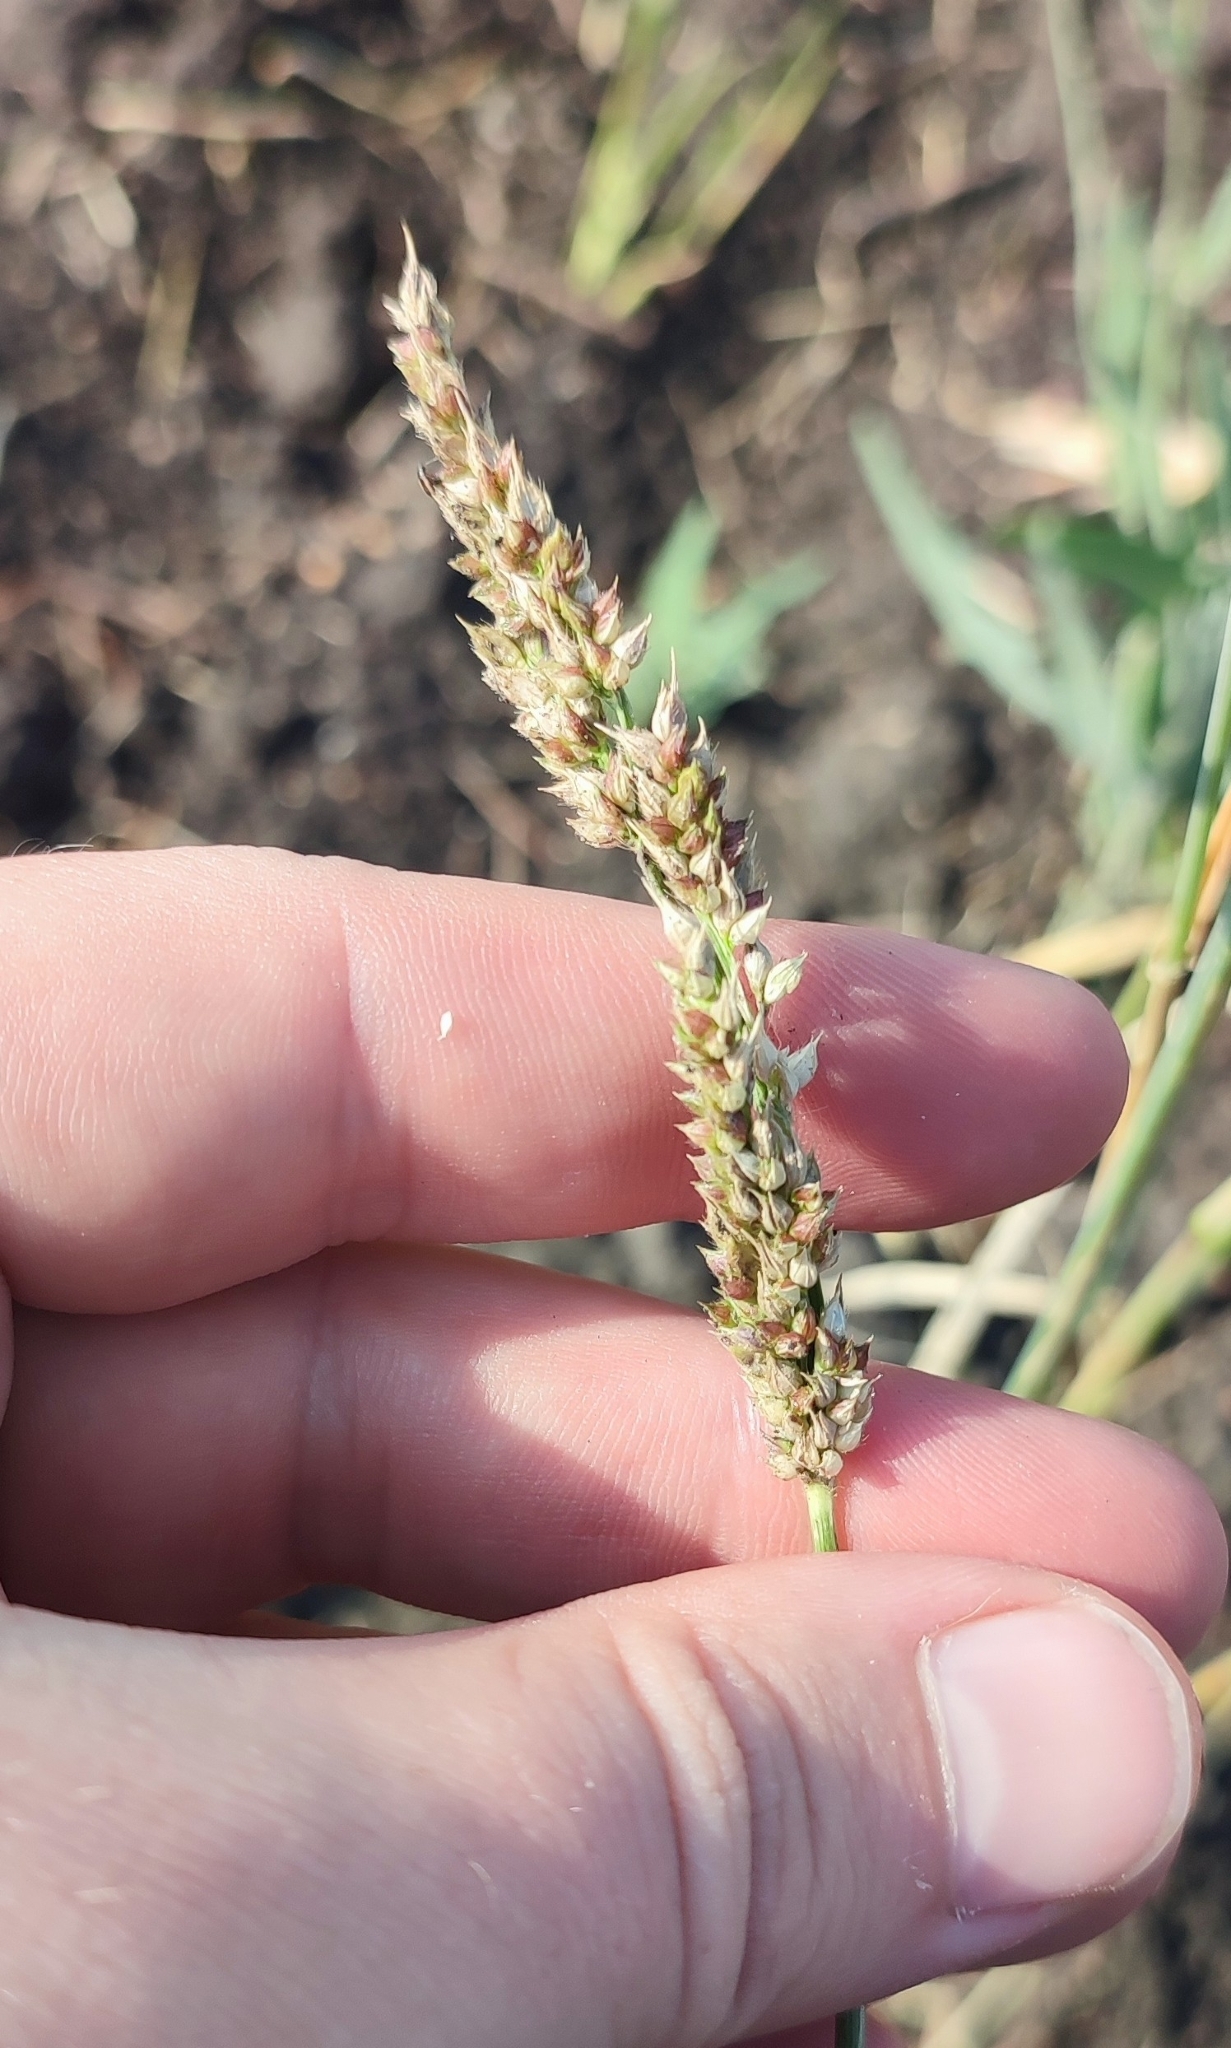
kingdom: Plantae
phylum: Tracheophyta
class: Liliopsida
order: Poales
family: Poaceae
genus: Echinochloa
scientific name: Echinochloa crus-galli
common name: Cockspur
